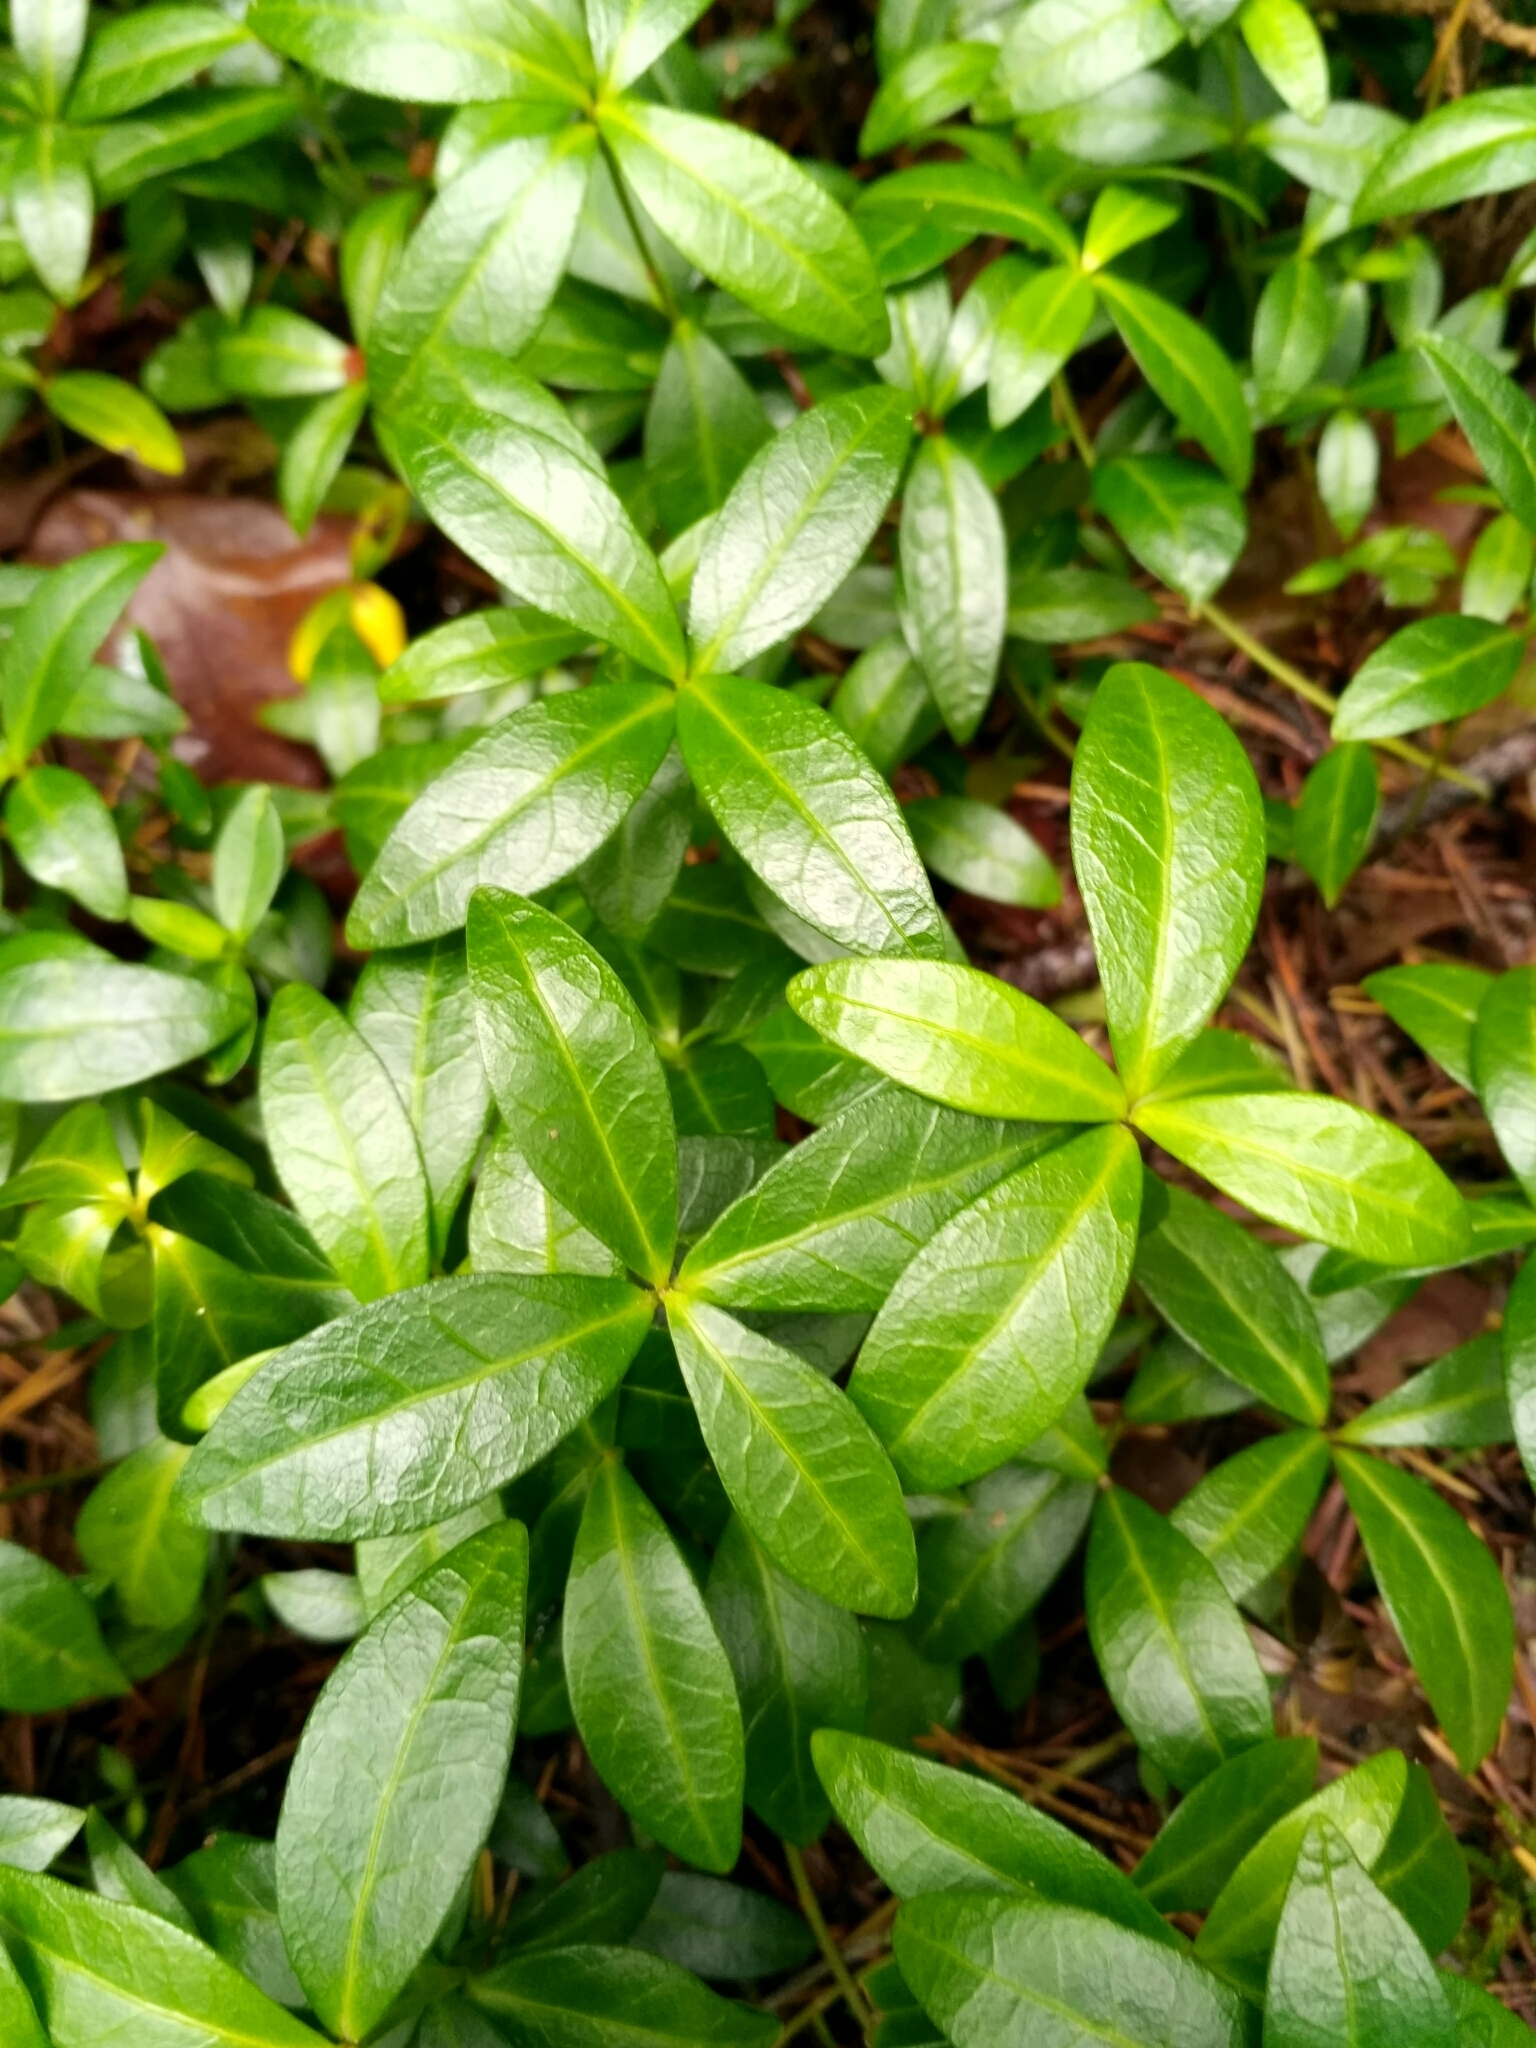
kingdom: Plantae
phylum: Tracheophyta
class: Magnoliopsida
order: Gentianales
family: Apocynaceae
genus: Vinca
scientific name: Vinca minor
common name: Lesser periwinkle
